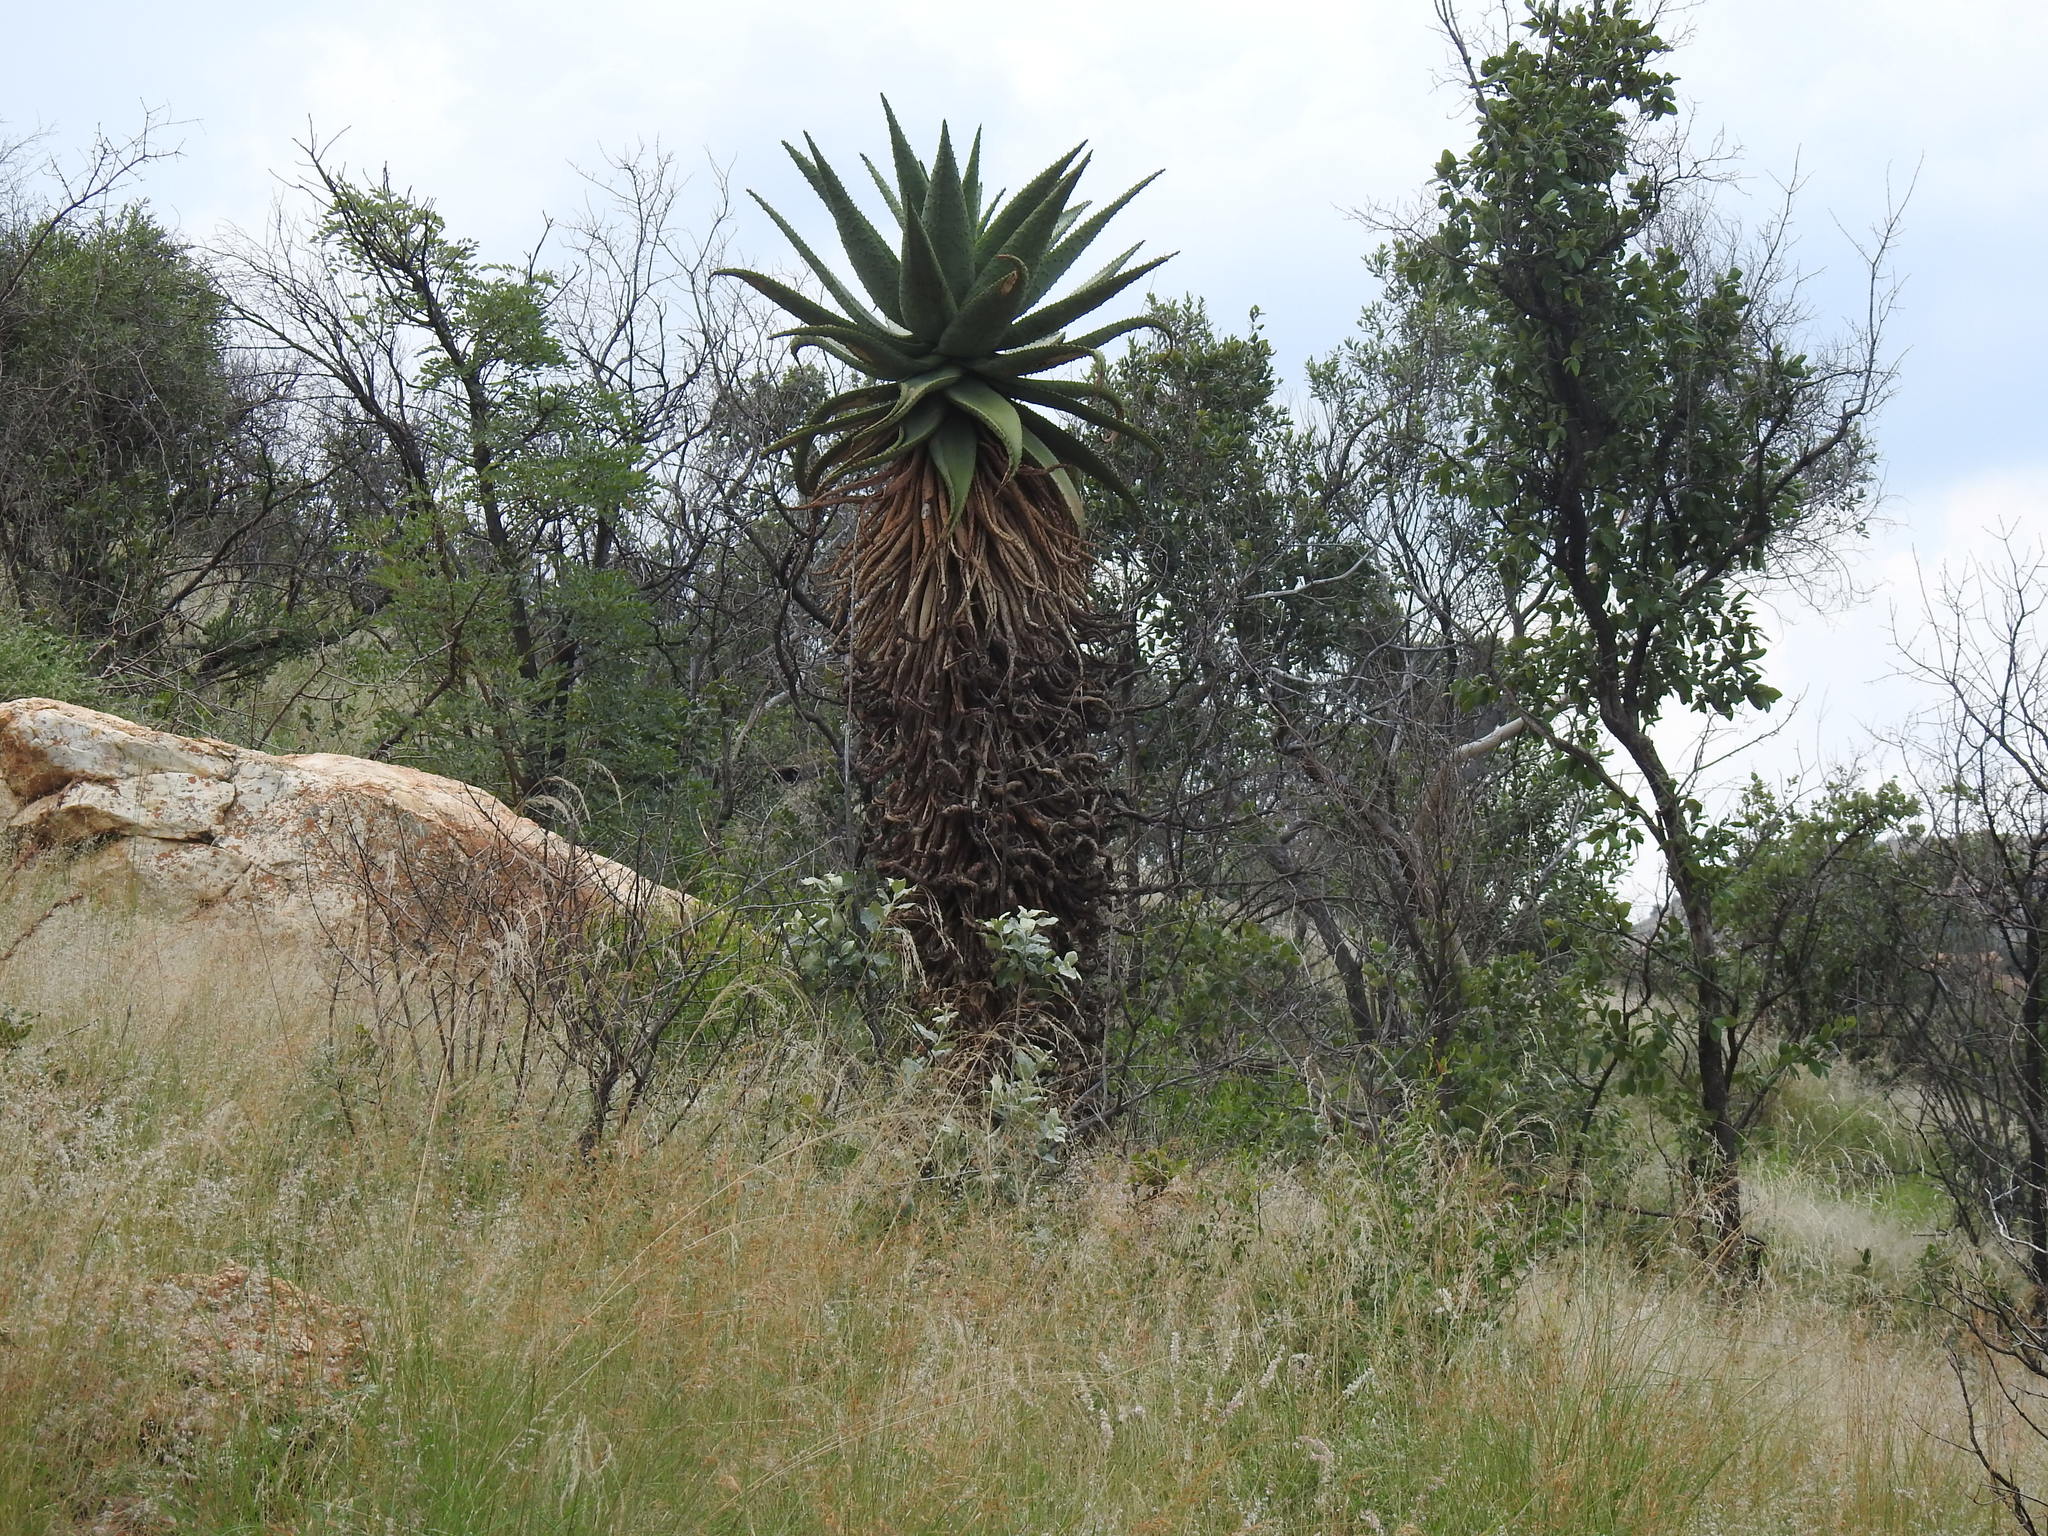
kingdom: Plantae
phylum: Tracheophyta
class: Liliopsida
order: Asparagales
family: Asphodelaceae
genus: Aloe
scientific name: Aloe marlothii
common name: Flat-flowered aloe
